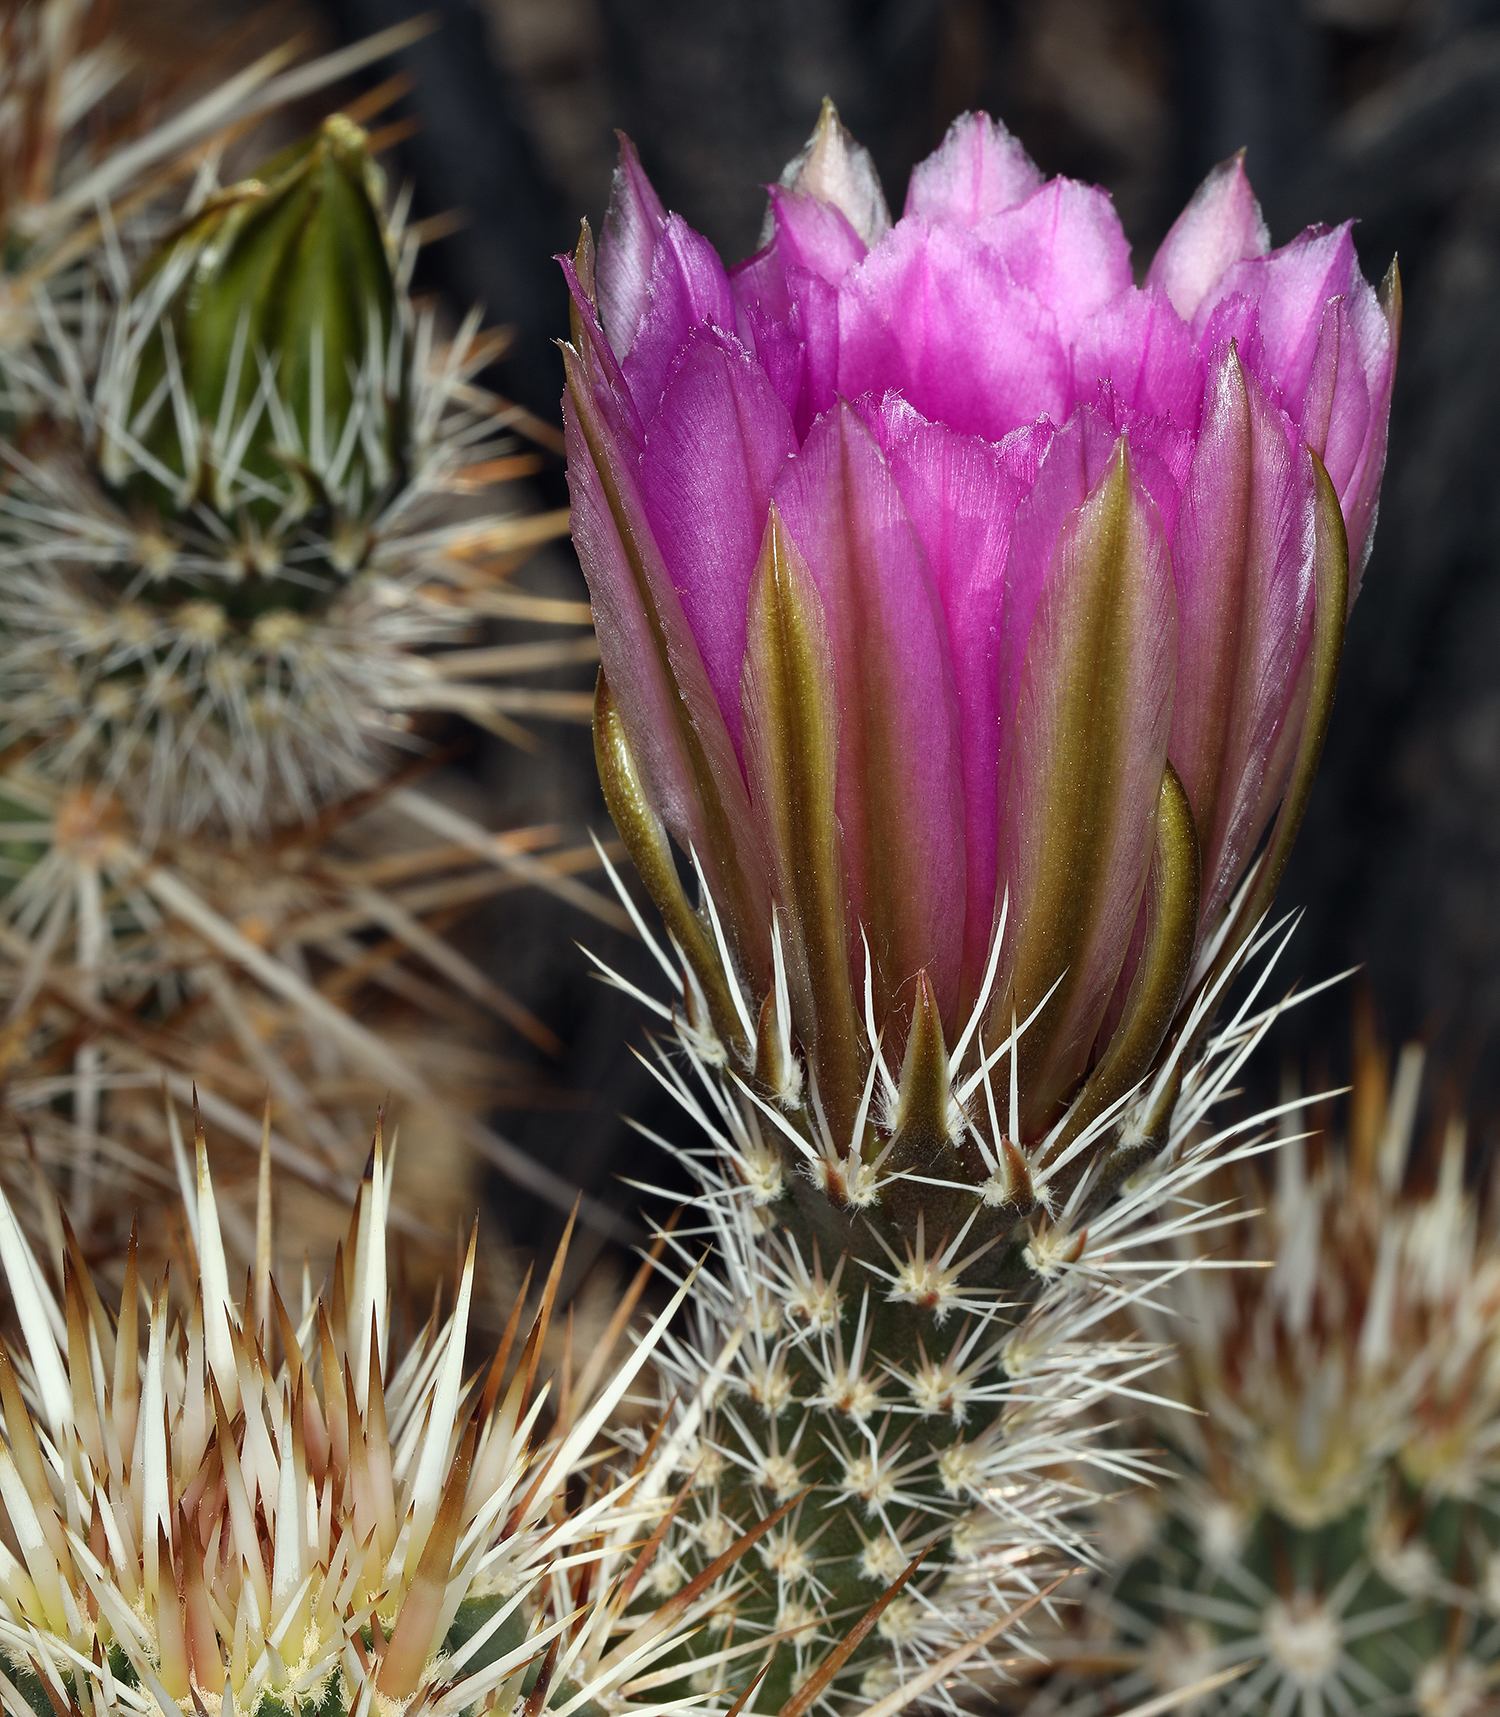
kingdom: Plantae
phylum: Tracheophyta
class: Magnoliopsida
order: Caryophyllales
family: Cactaceae
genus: Echinocereus
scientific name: Echinocereus engelmannii
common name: Engelmann's hedgehog cactus
